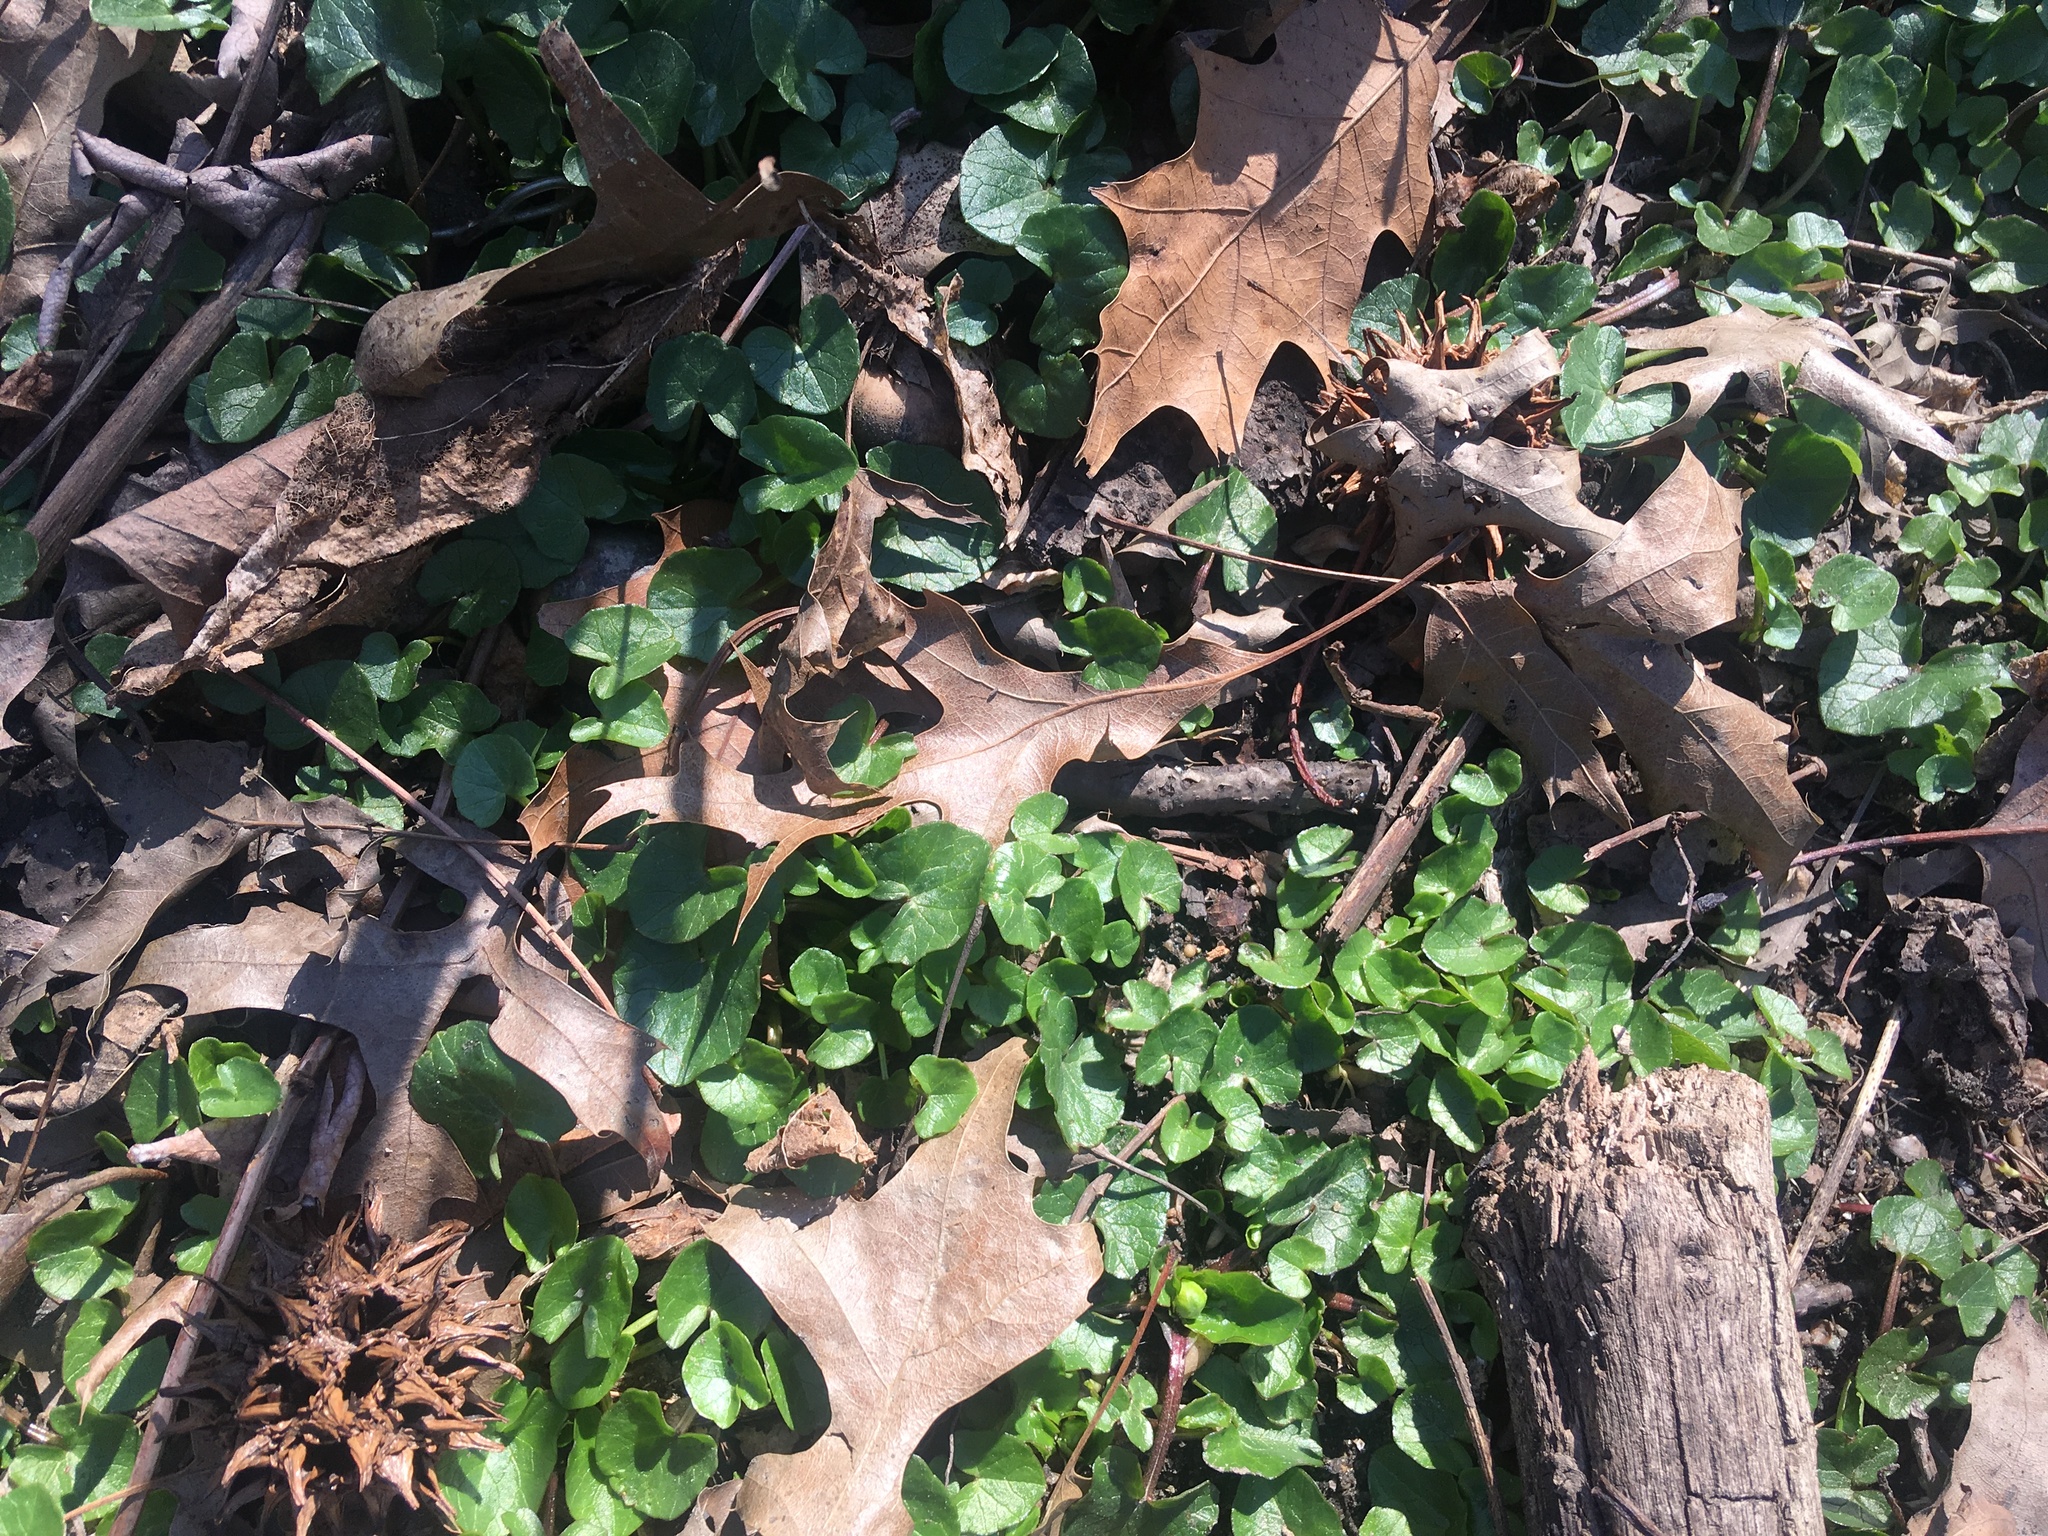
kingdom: Plantae
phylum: Tracheophyta
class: Magnoliopsida
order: Ranunculales
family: Ranunculaceae
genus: Ficaria
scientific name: Ficaria verna
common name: Lesser celandine
